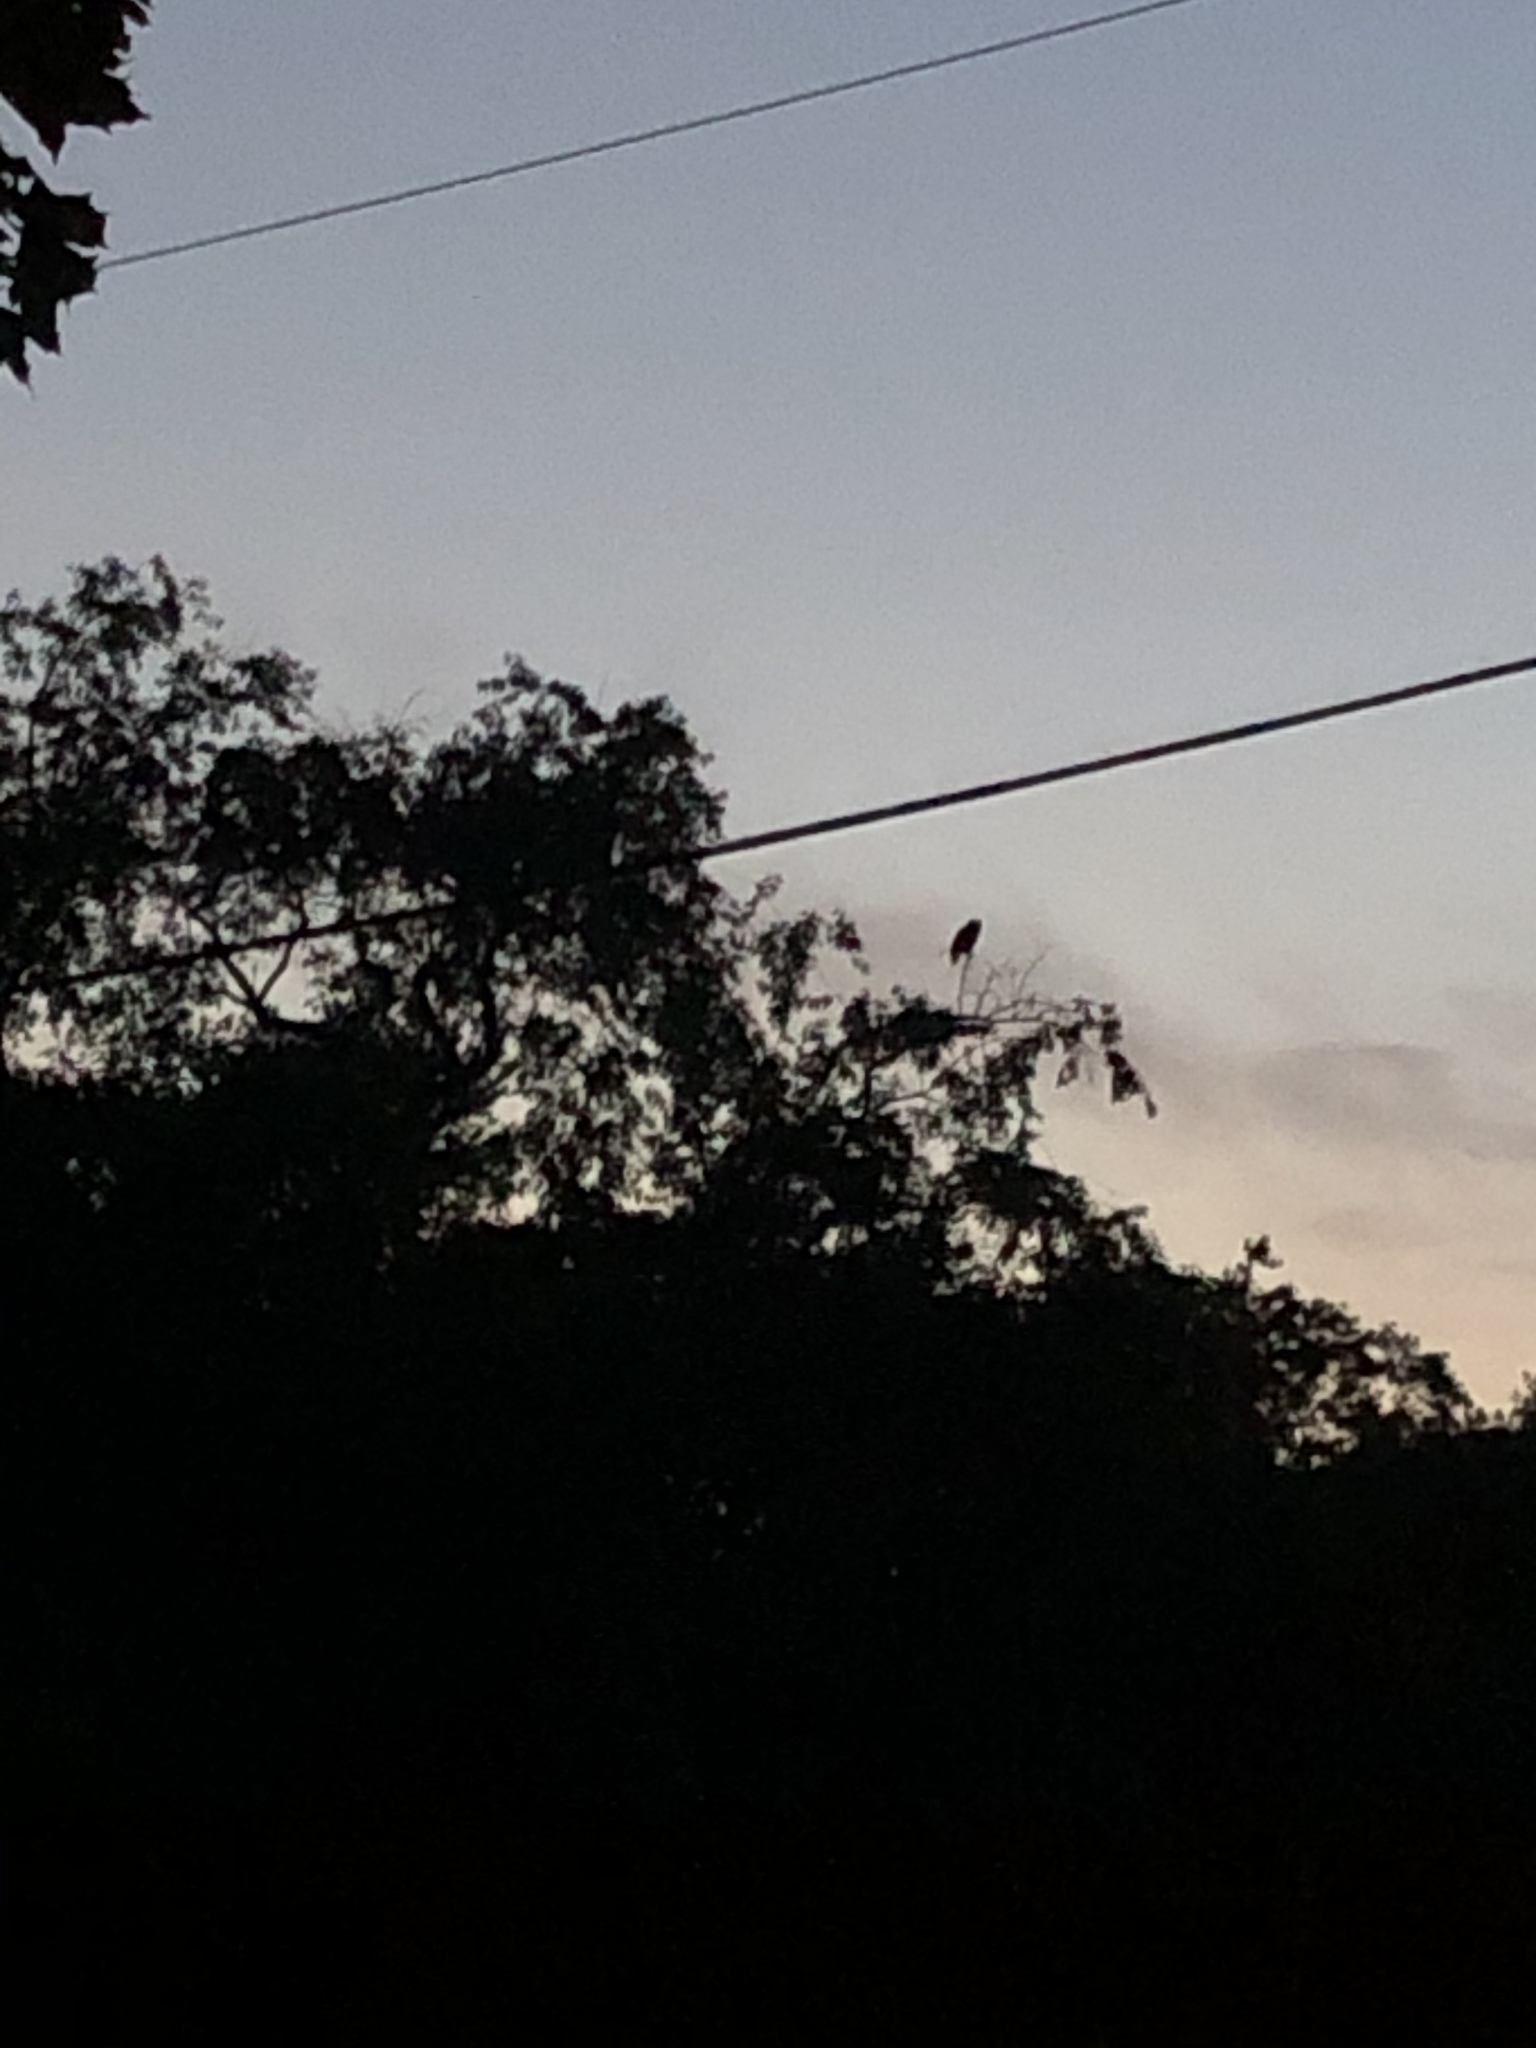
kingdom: Animalia
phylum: Chordata
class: Aves
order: Strigiformes
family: Strigidae
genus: Bubo
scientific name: Bubo virginianus
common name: Great horned owl
